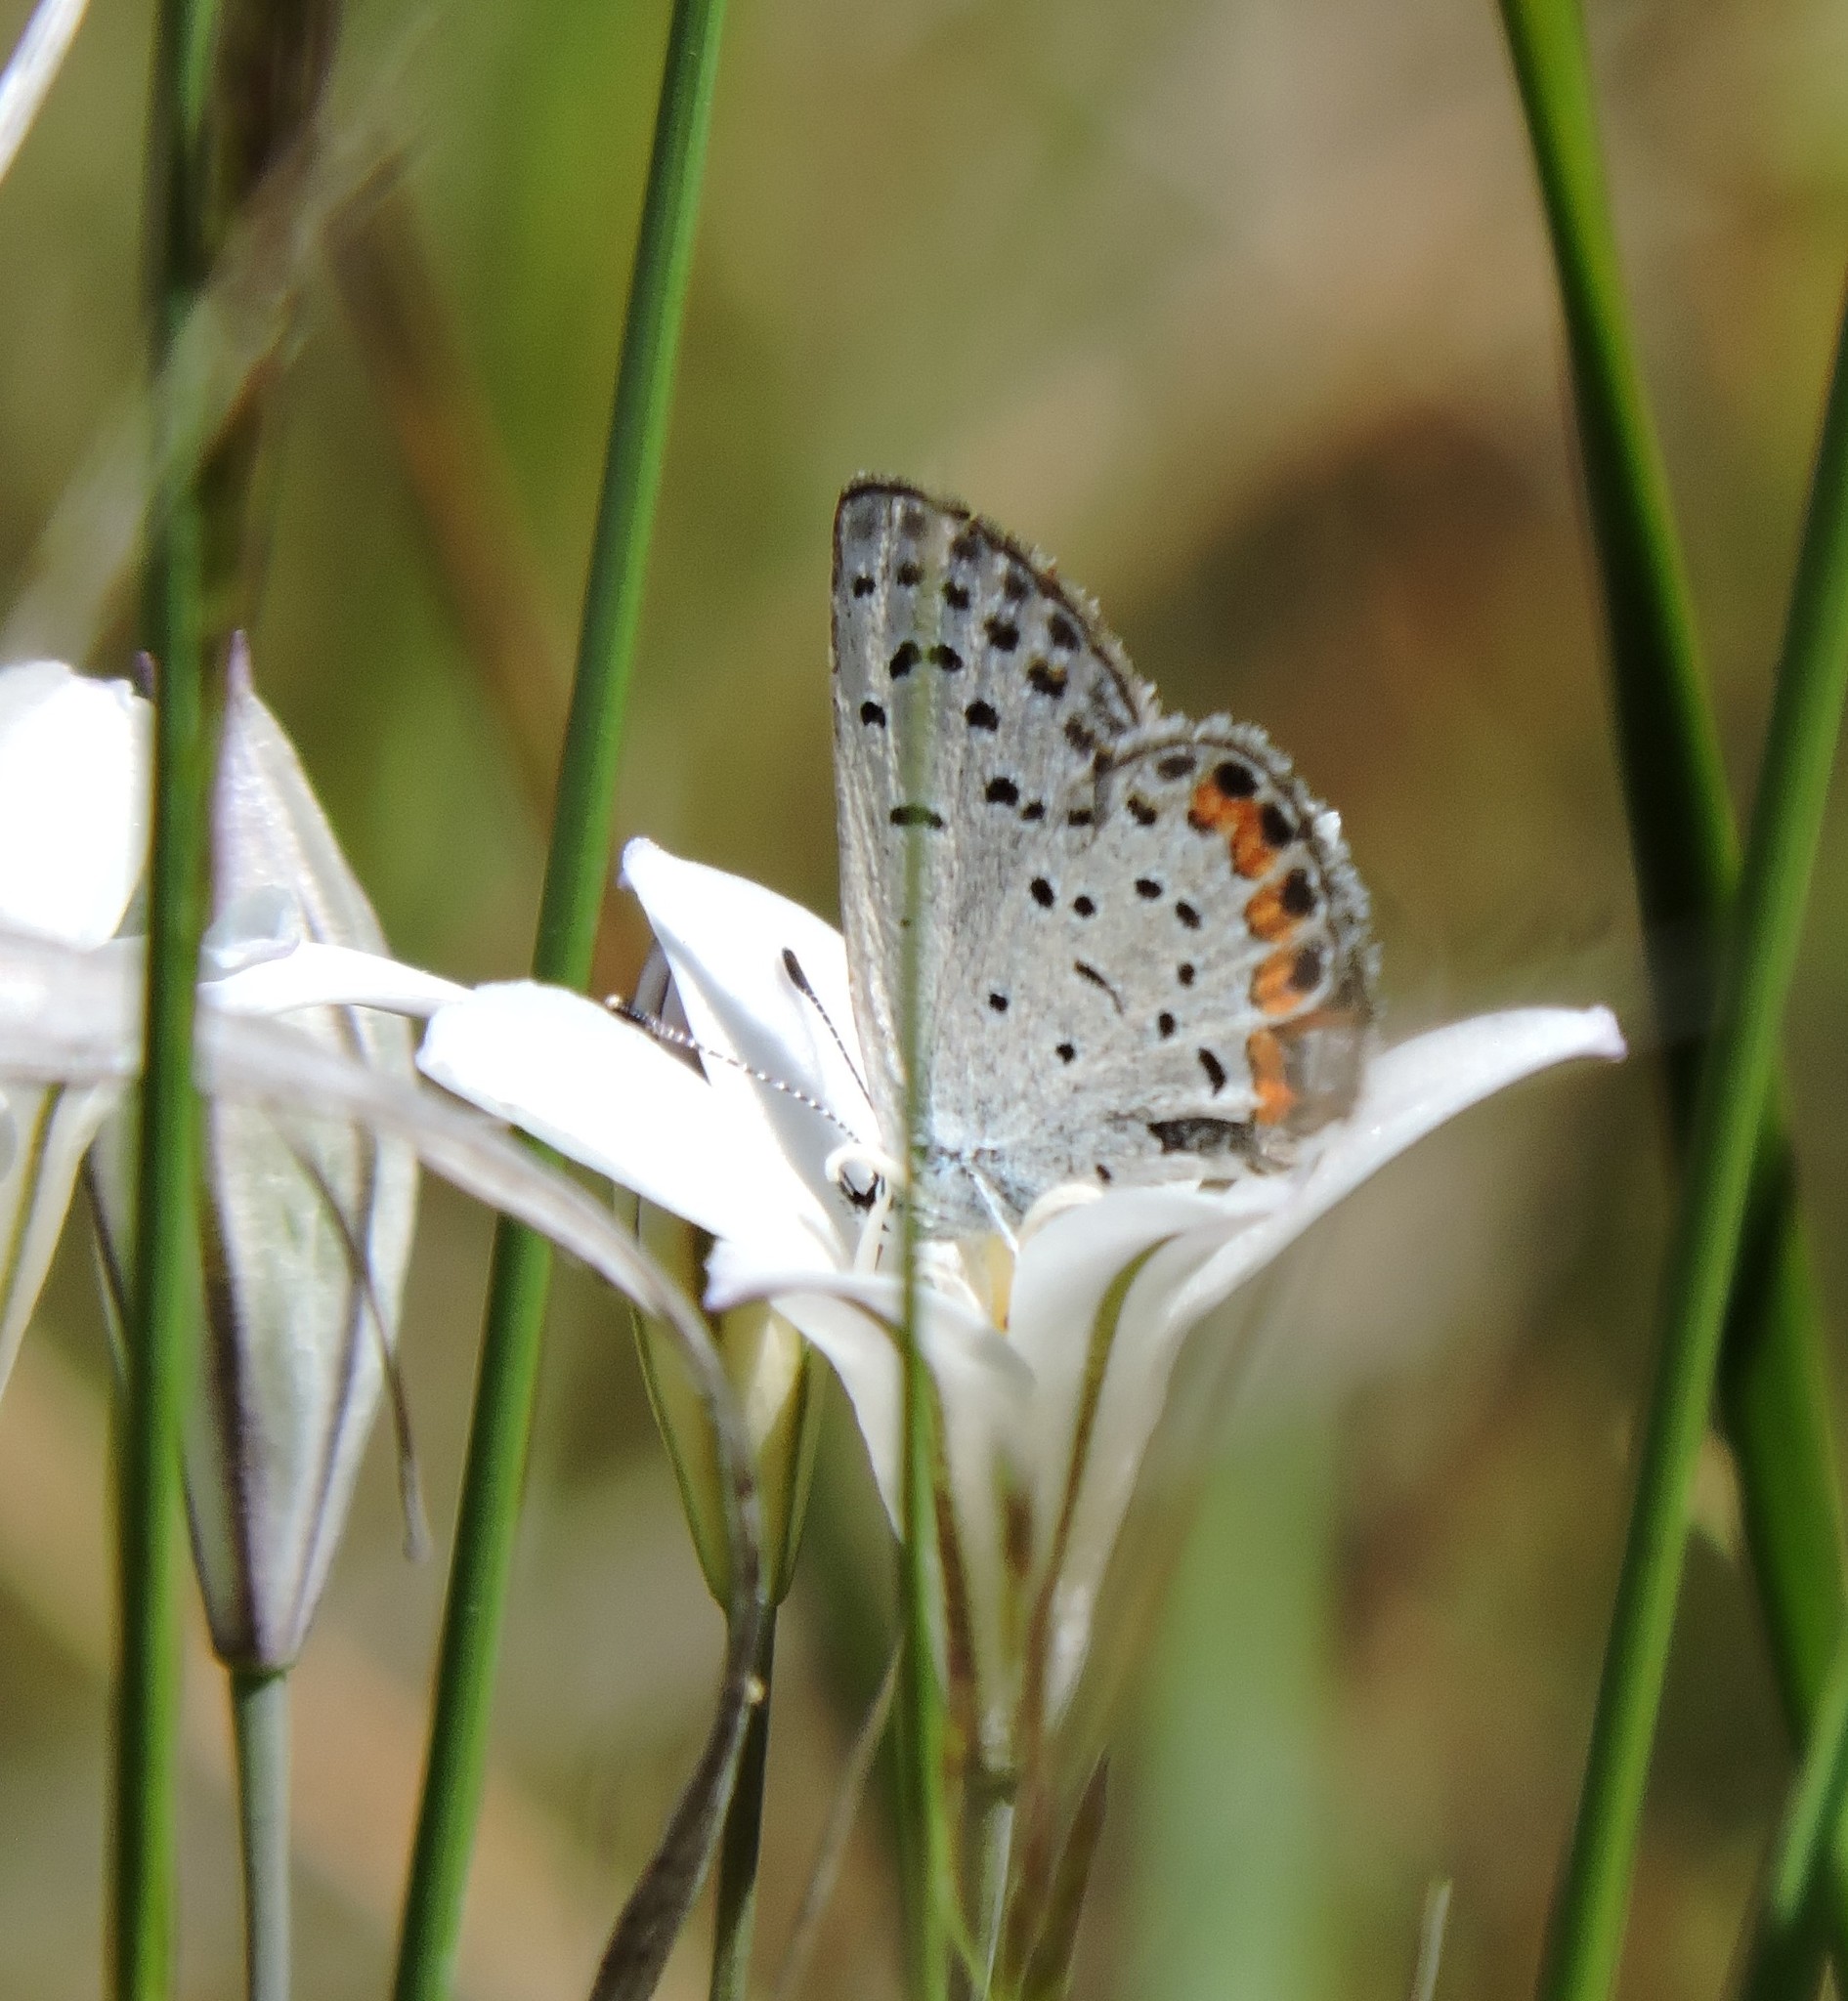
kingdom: Animalia
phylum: Arthropoda
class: Insecta
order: Lepidoptera
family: Lycaenidae
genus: Icaricia
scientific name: Icaricia acmon
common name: Acmon blue
